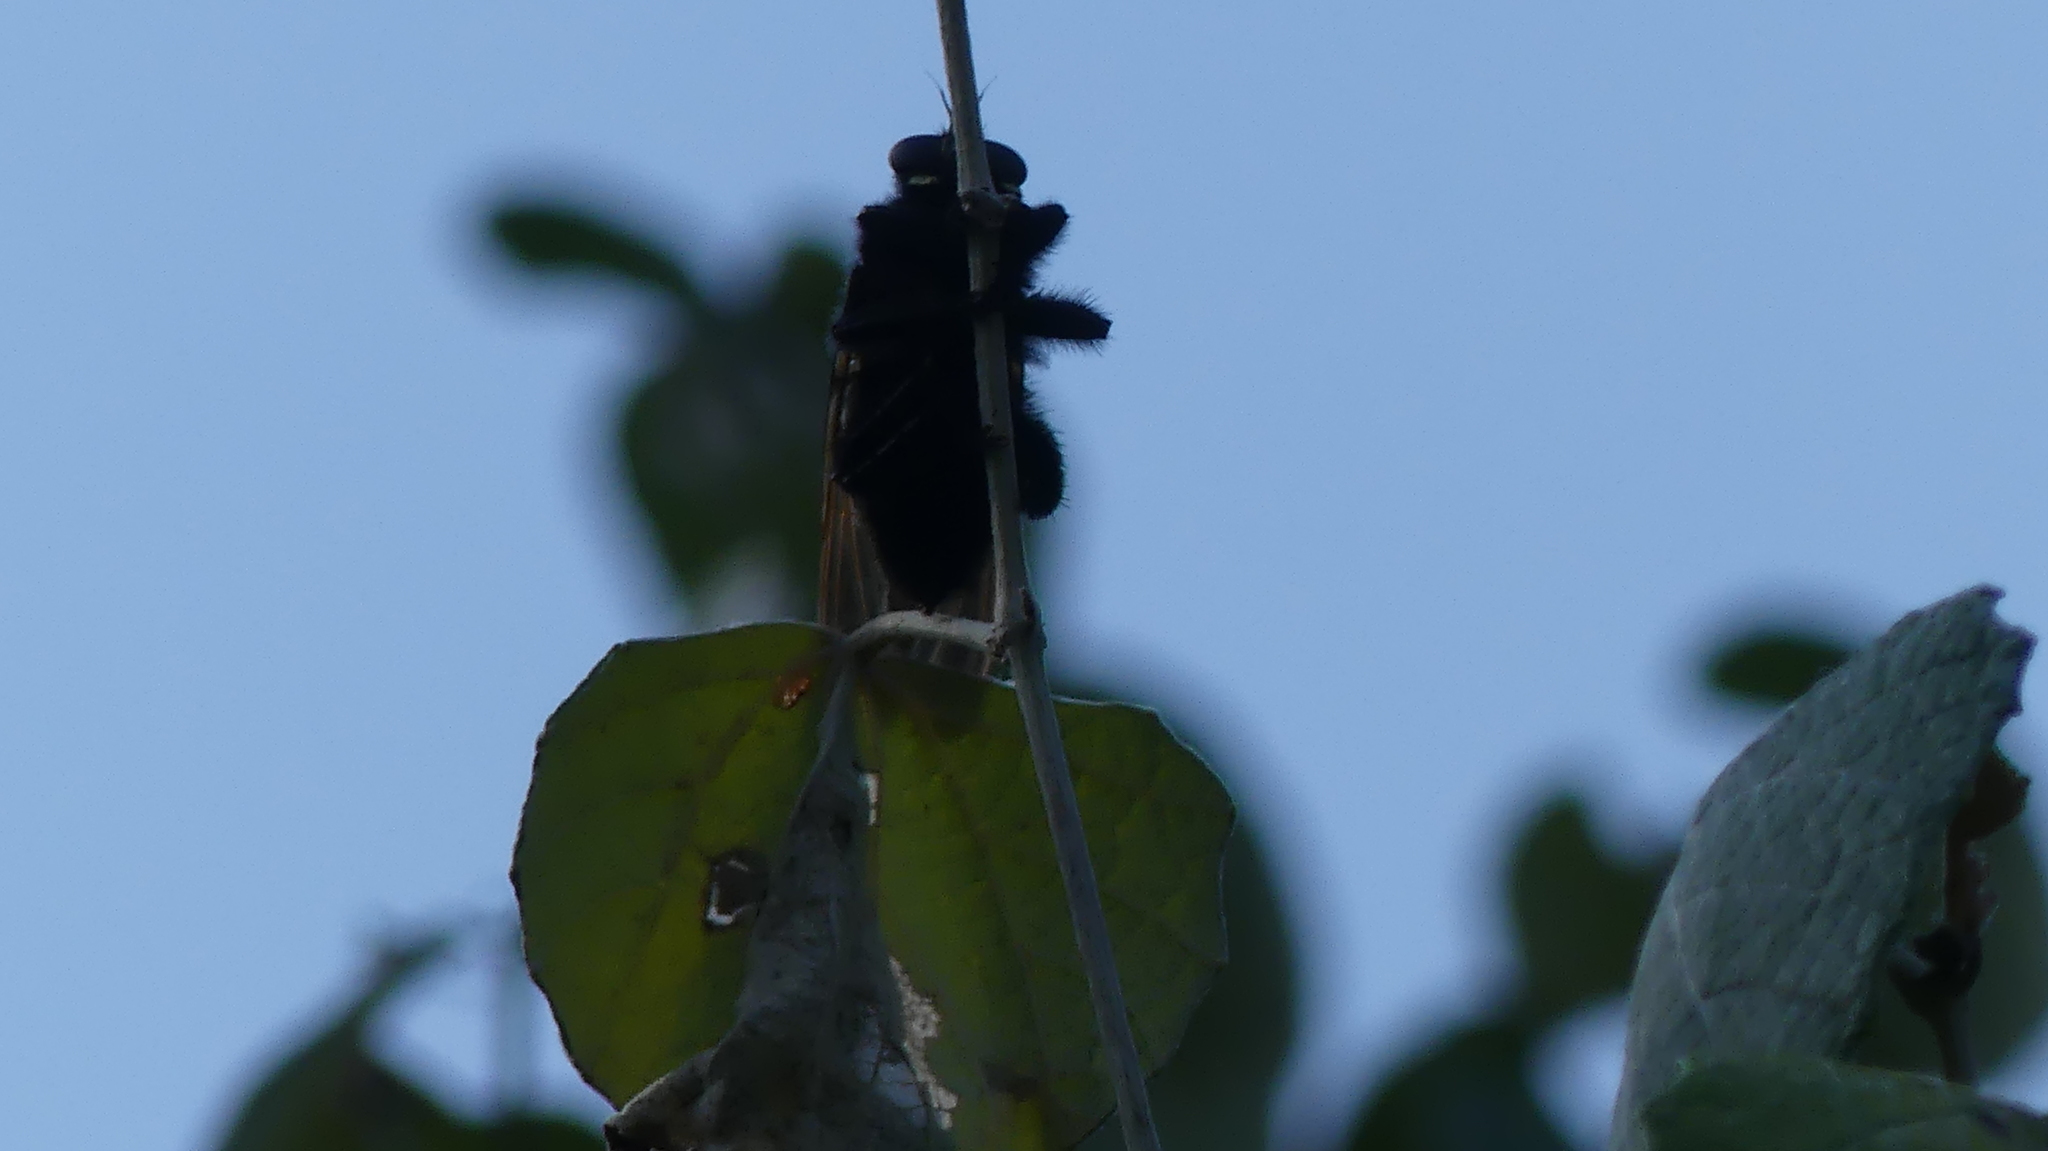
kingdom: Animalia
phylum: Arthropoda
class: Insecta
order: Diptera
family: Asilidae
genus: Mallophora
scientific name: Mallophora leschenaultii
